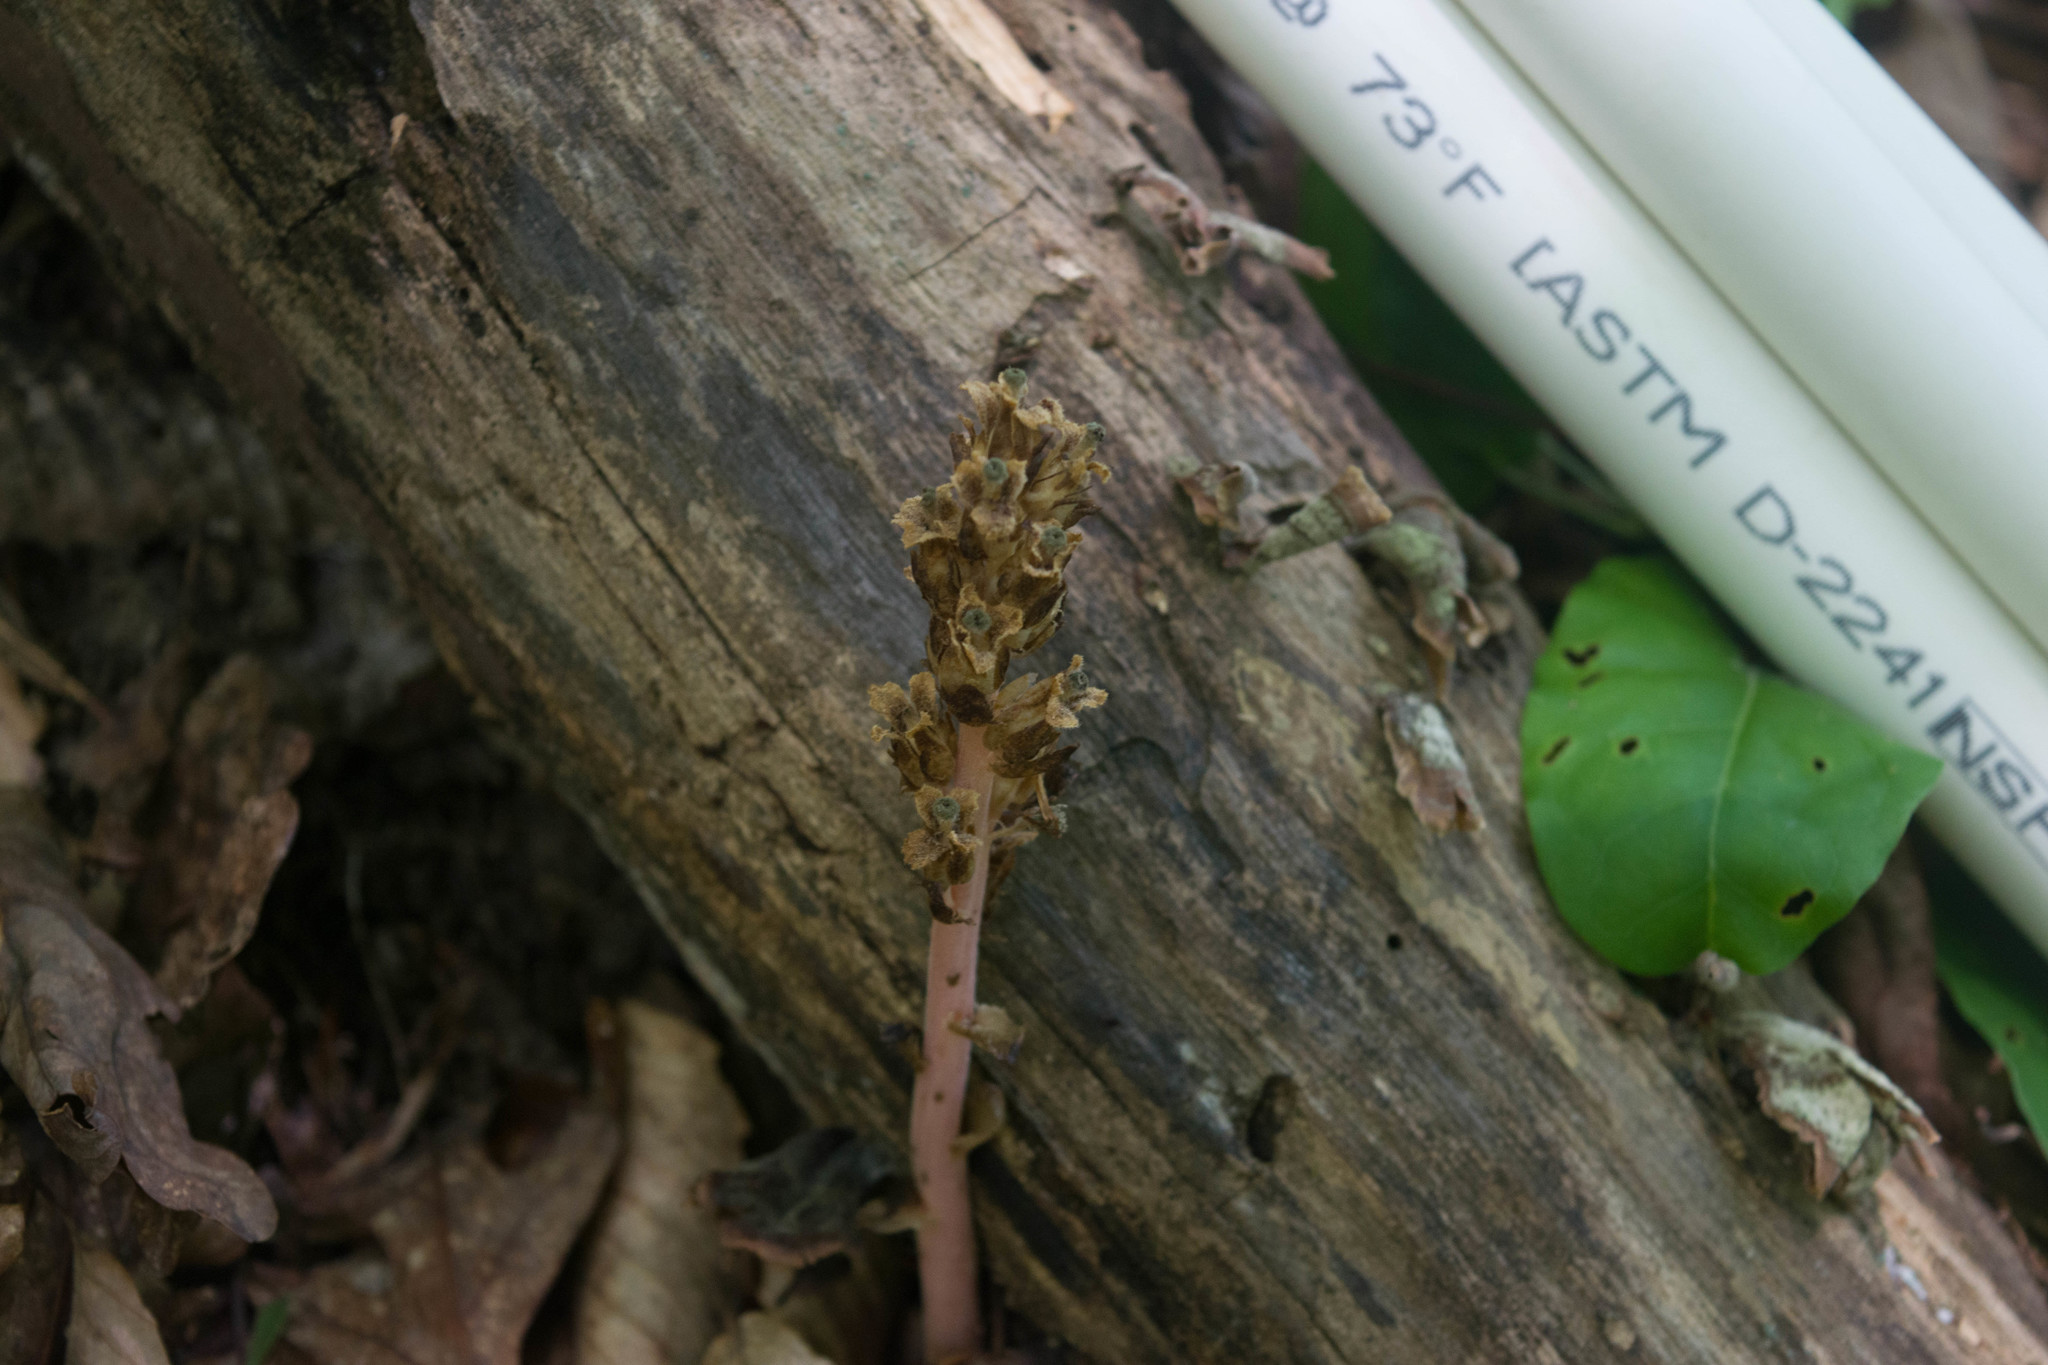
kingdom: Plantae
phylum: Tracheophyta
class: Magnoliopsida
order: Ericales
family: Ericaceae
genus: Hypopitys
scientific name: Hypopitys monotropa
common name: Yellow bird's-nest
